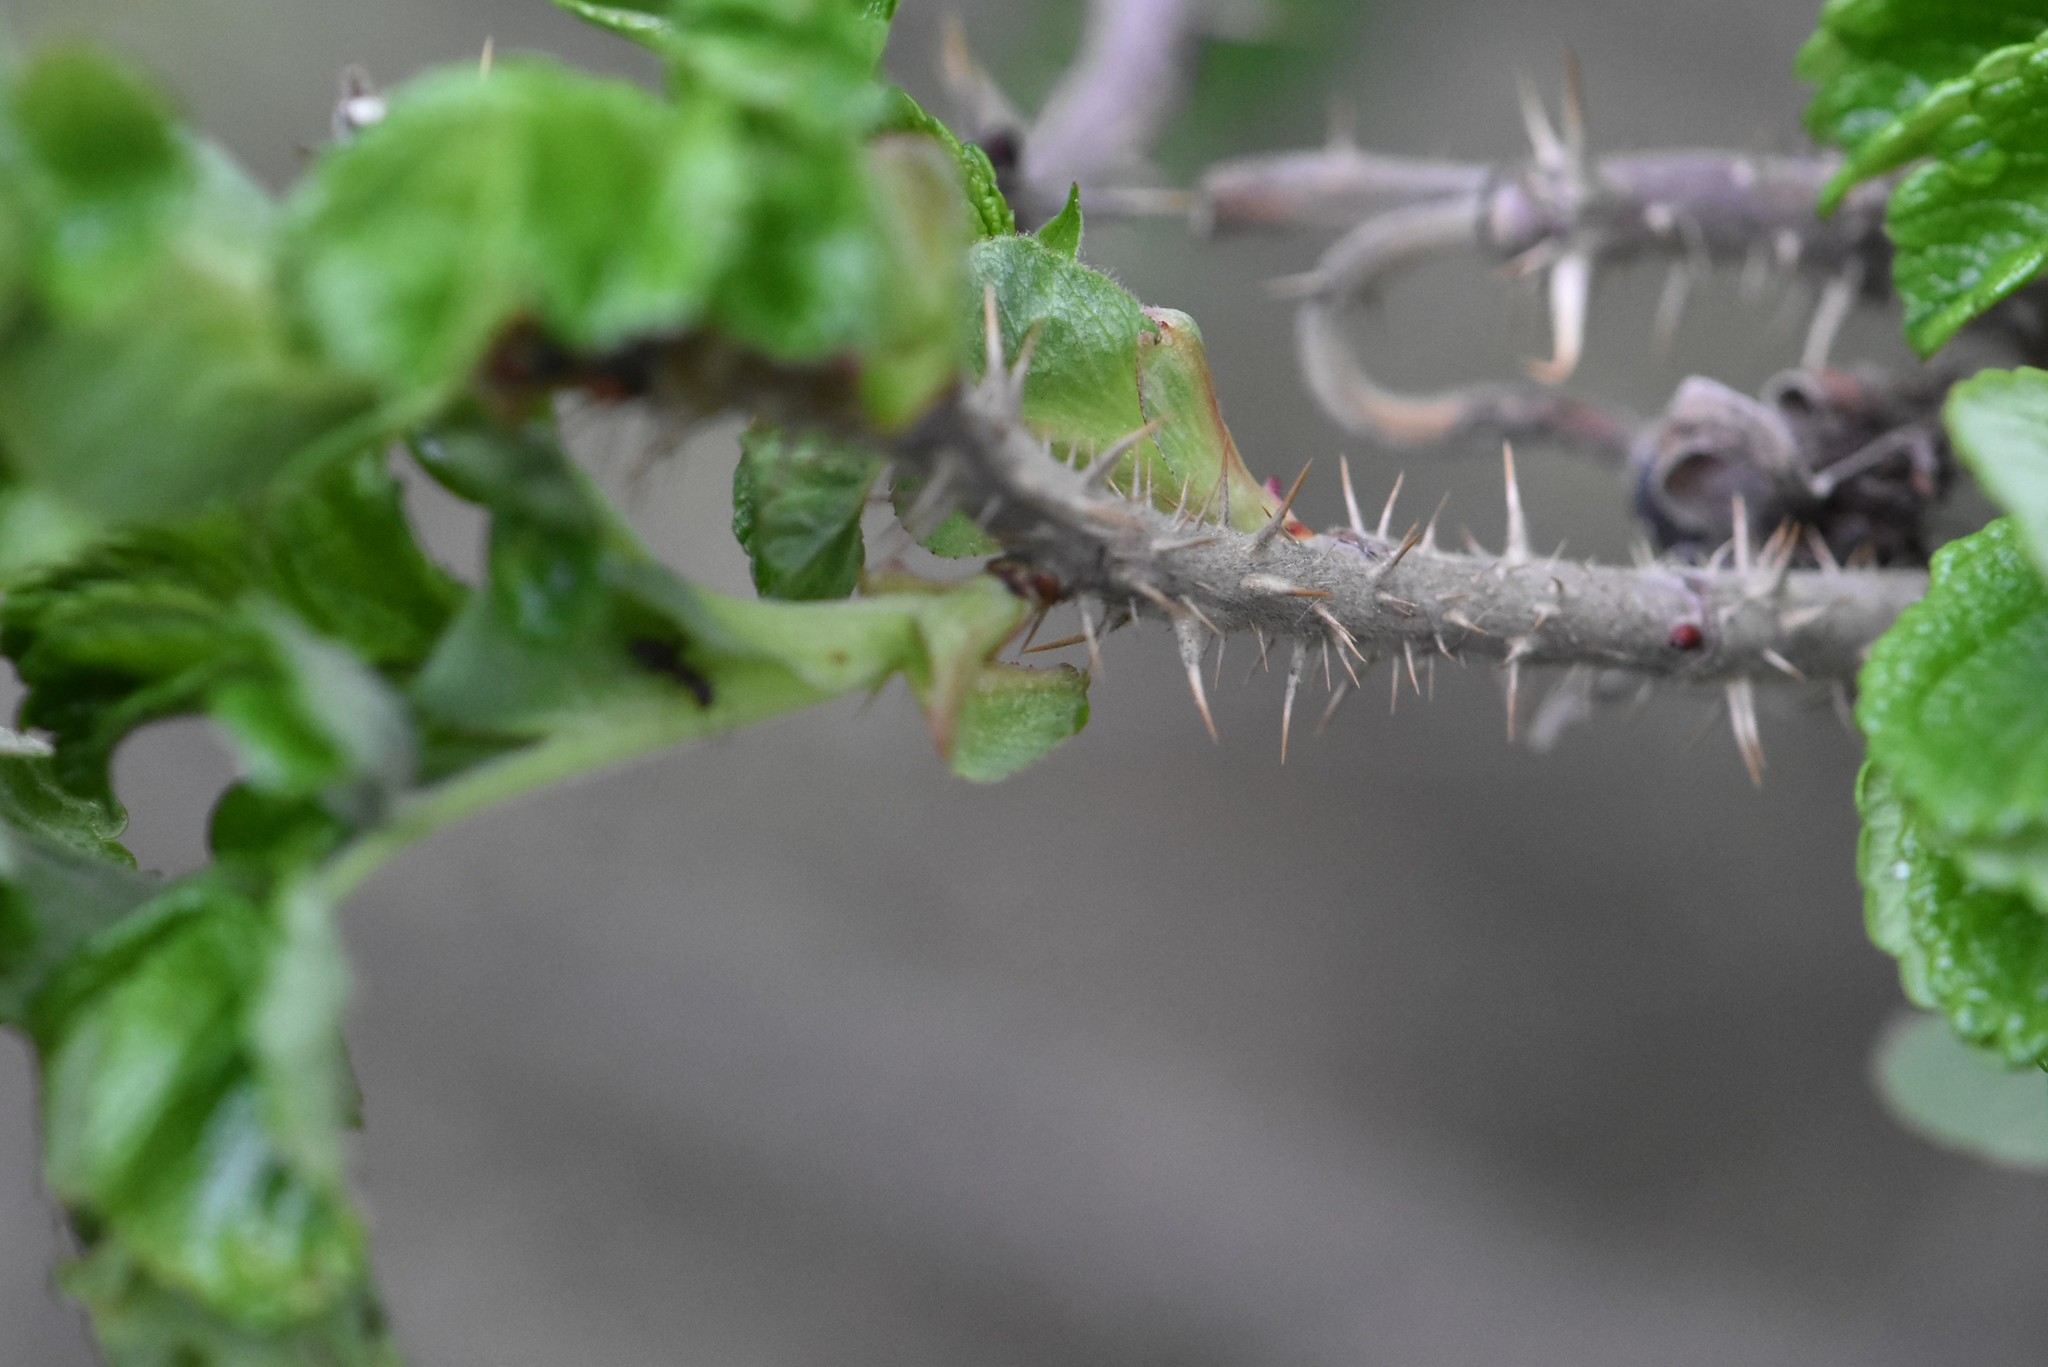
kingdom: Plantae
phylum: Tracheophyta
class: Magnoliopsida
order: Rosales
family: Rosaceae
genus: Rosa
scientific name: Rosa rugosa
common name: Japanese rose
